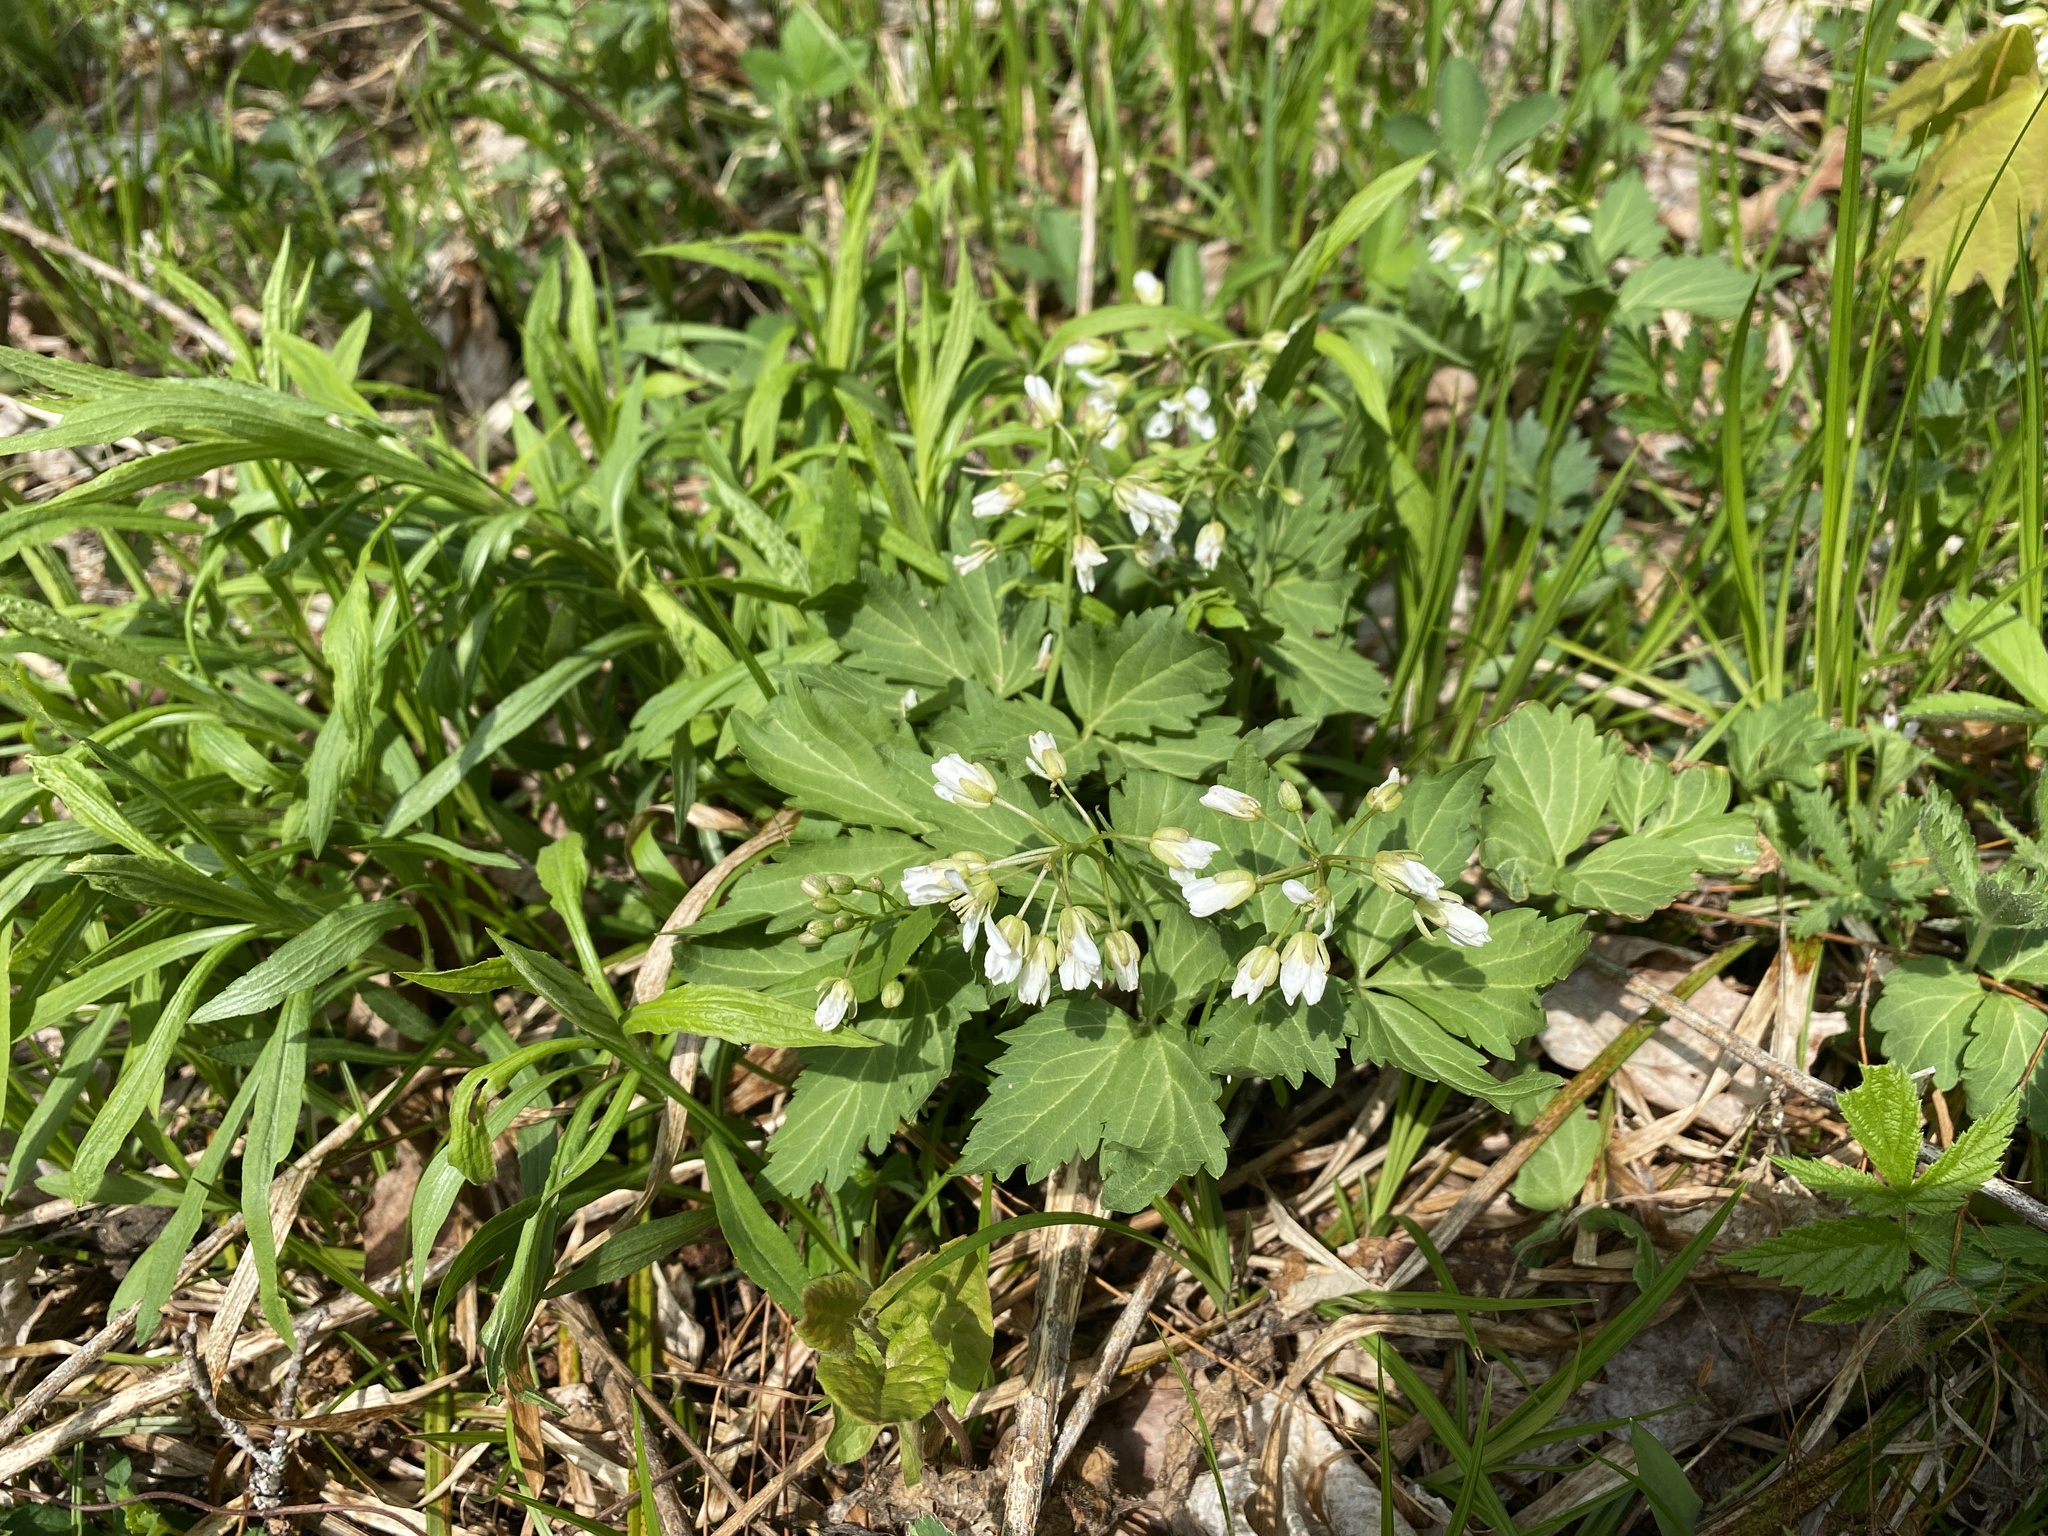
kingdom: Plantae
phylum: Tracheophyta
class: Magnoliopsida
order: Brassicales
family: Brassicaceae
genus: Cardamine
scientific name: Cardamine diphylla
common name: Broad-leaved toothwort
